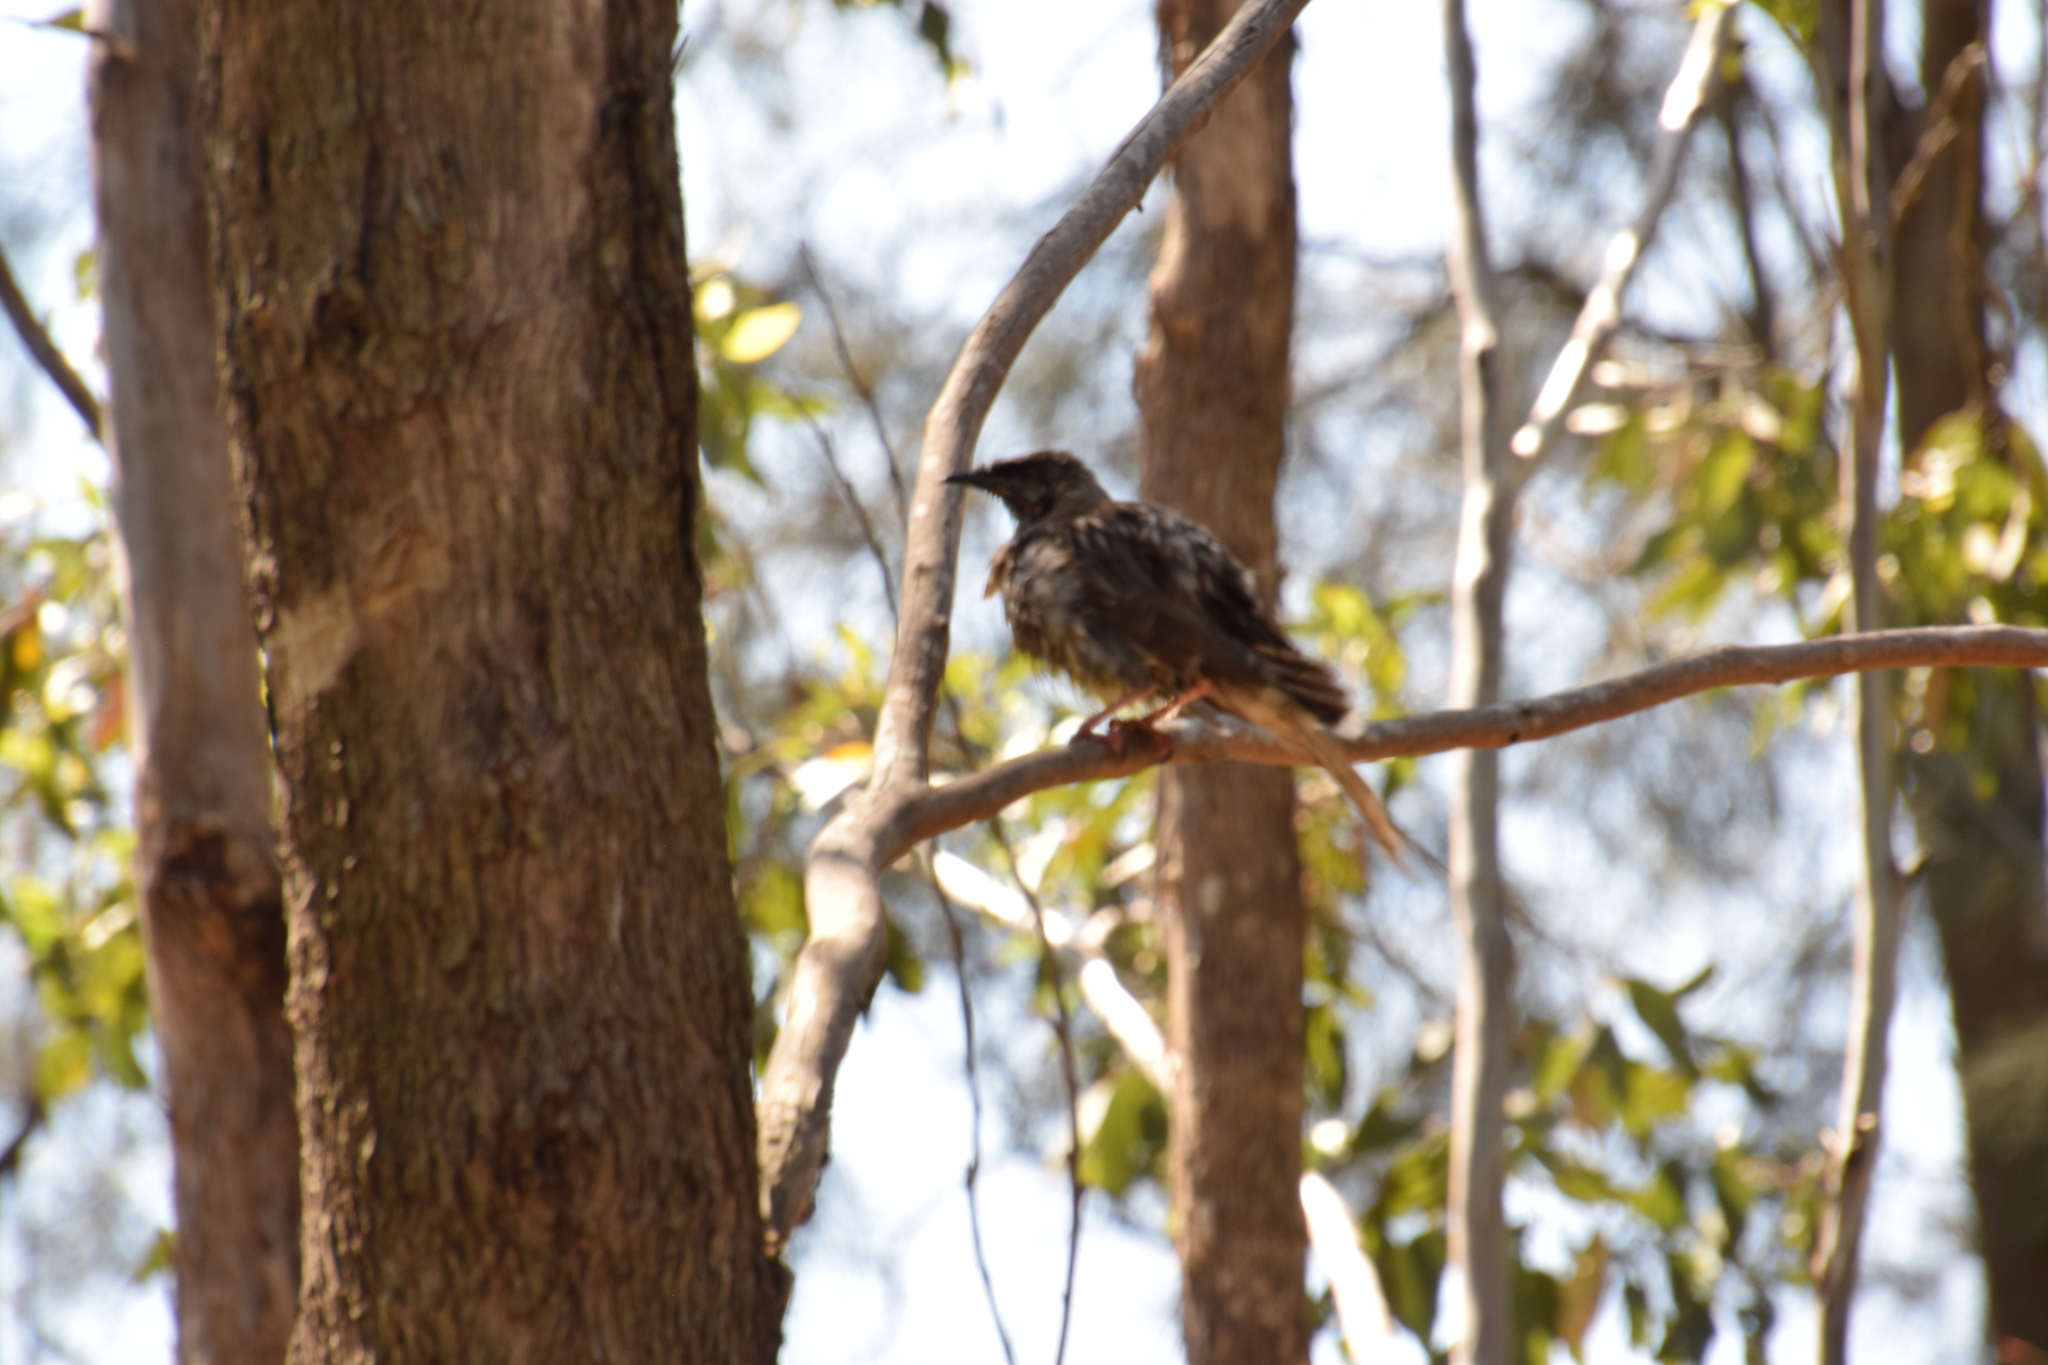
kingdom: Animalia
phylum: Chordata
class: Aves
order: Passeriformes
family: Meliphagidae
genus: Anthochaera
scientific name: Anthochaera carunculata
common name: Red wattlebird
